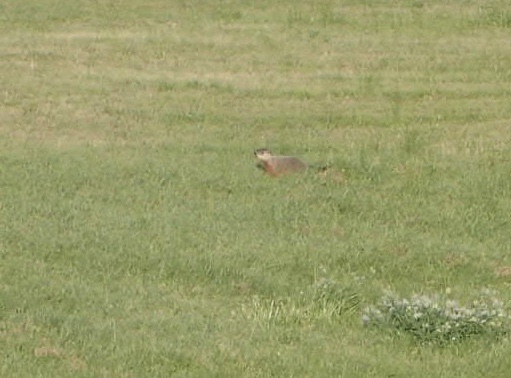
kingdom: Animalia
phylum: Chordata
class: Mammalia
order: Rodentia
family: Sciuridae
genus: Marmota
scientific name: Marmota monax
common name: Groundhog
